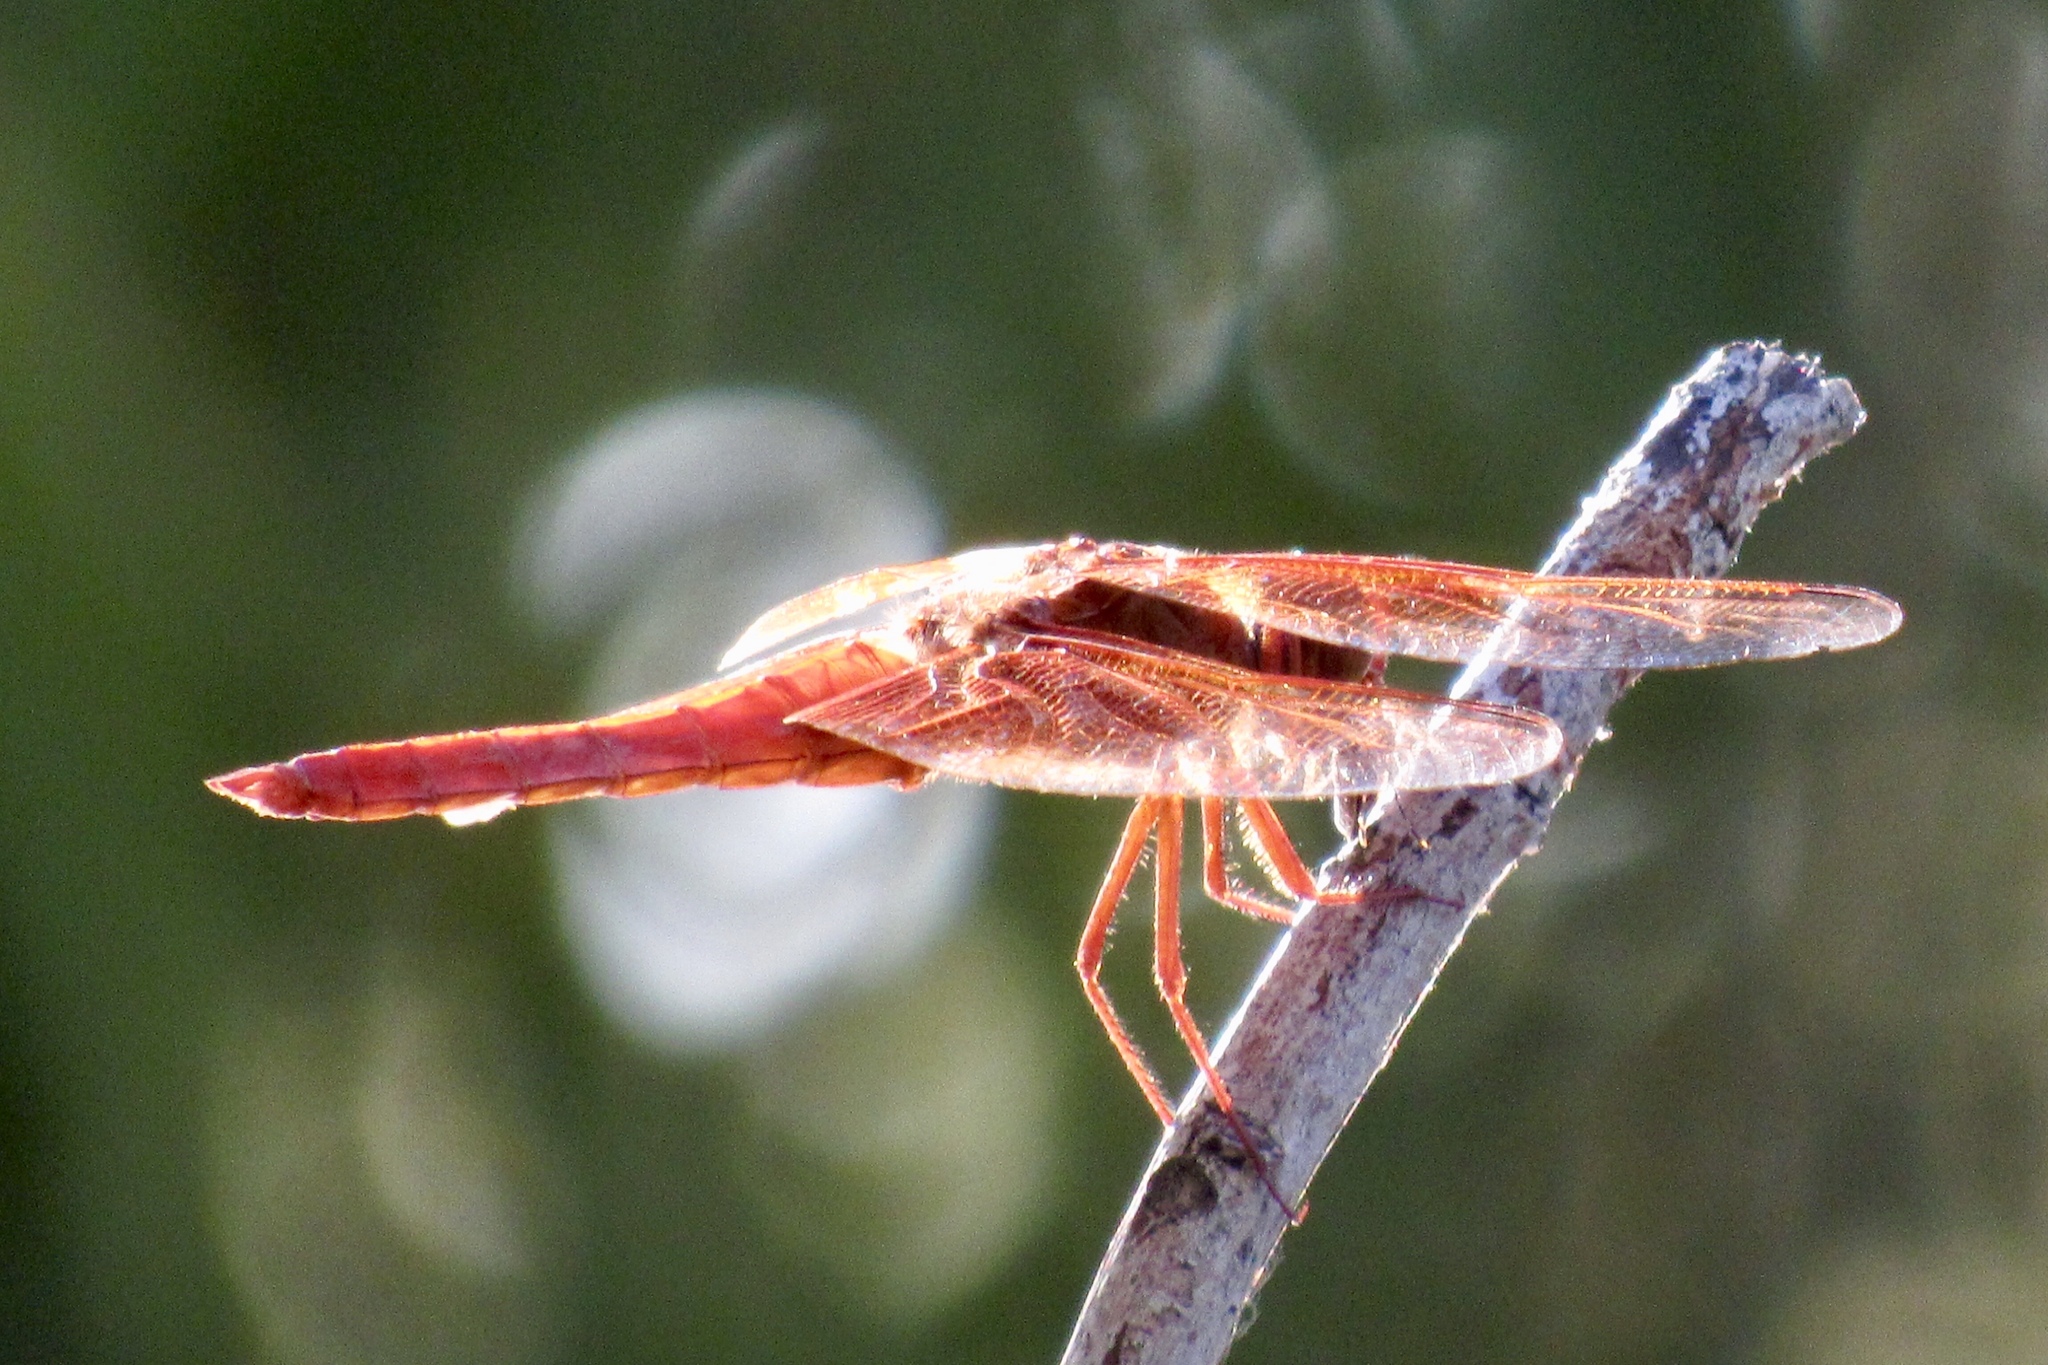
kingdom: Animalia
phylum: Arthropoda
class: Insecta
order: Odonata
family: Libellulidae
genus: Libellula
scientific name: Libellula saturata
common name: Flame skimmer
